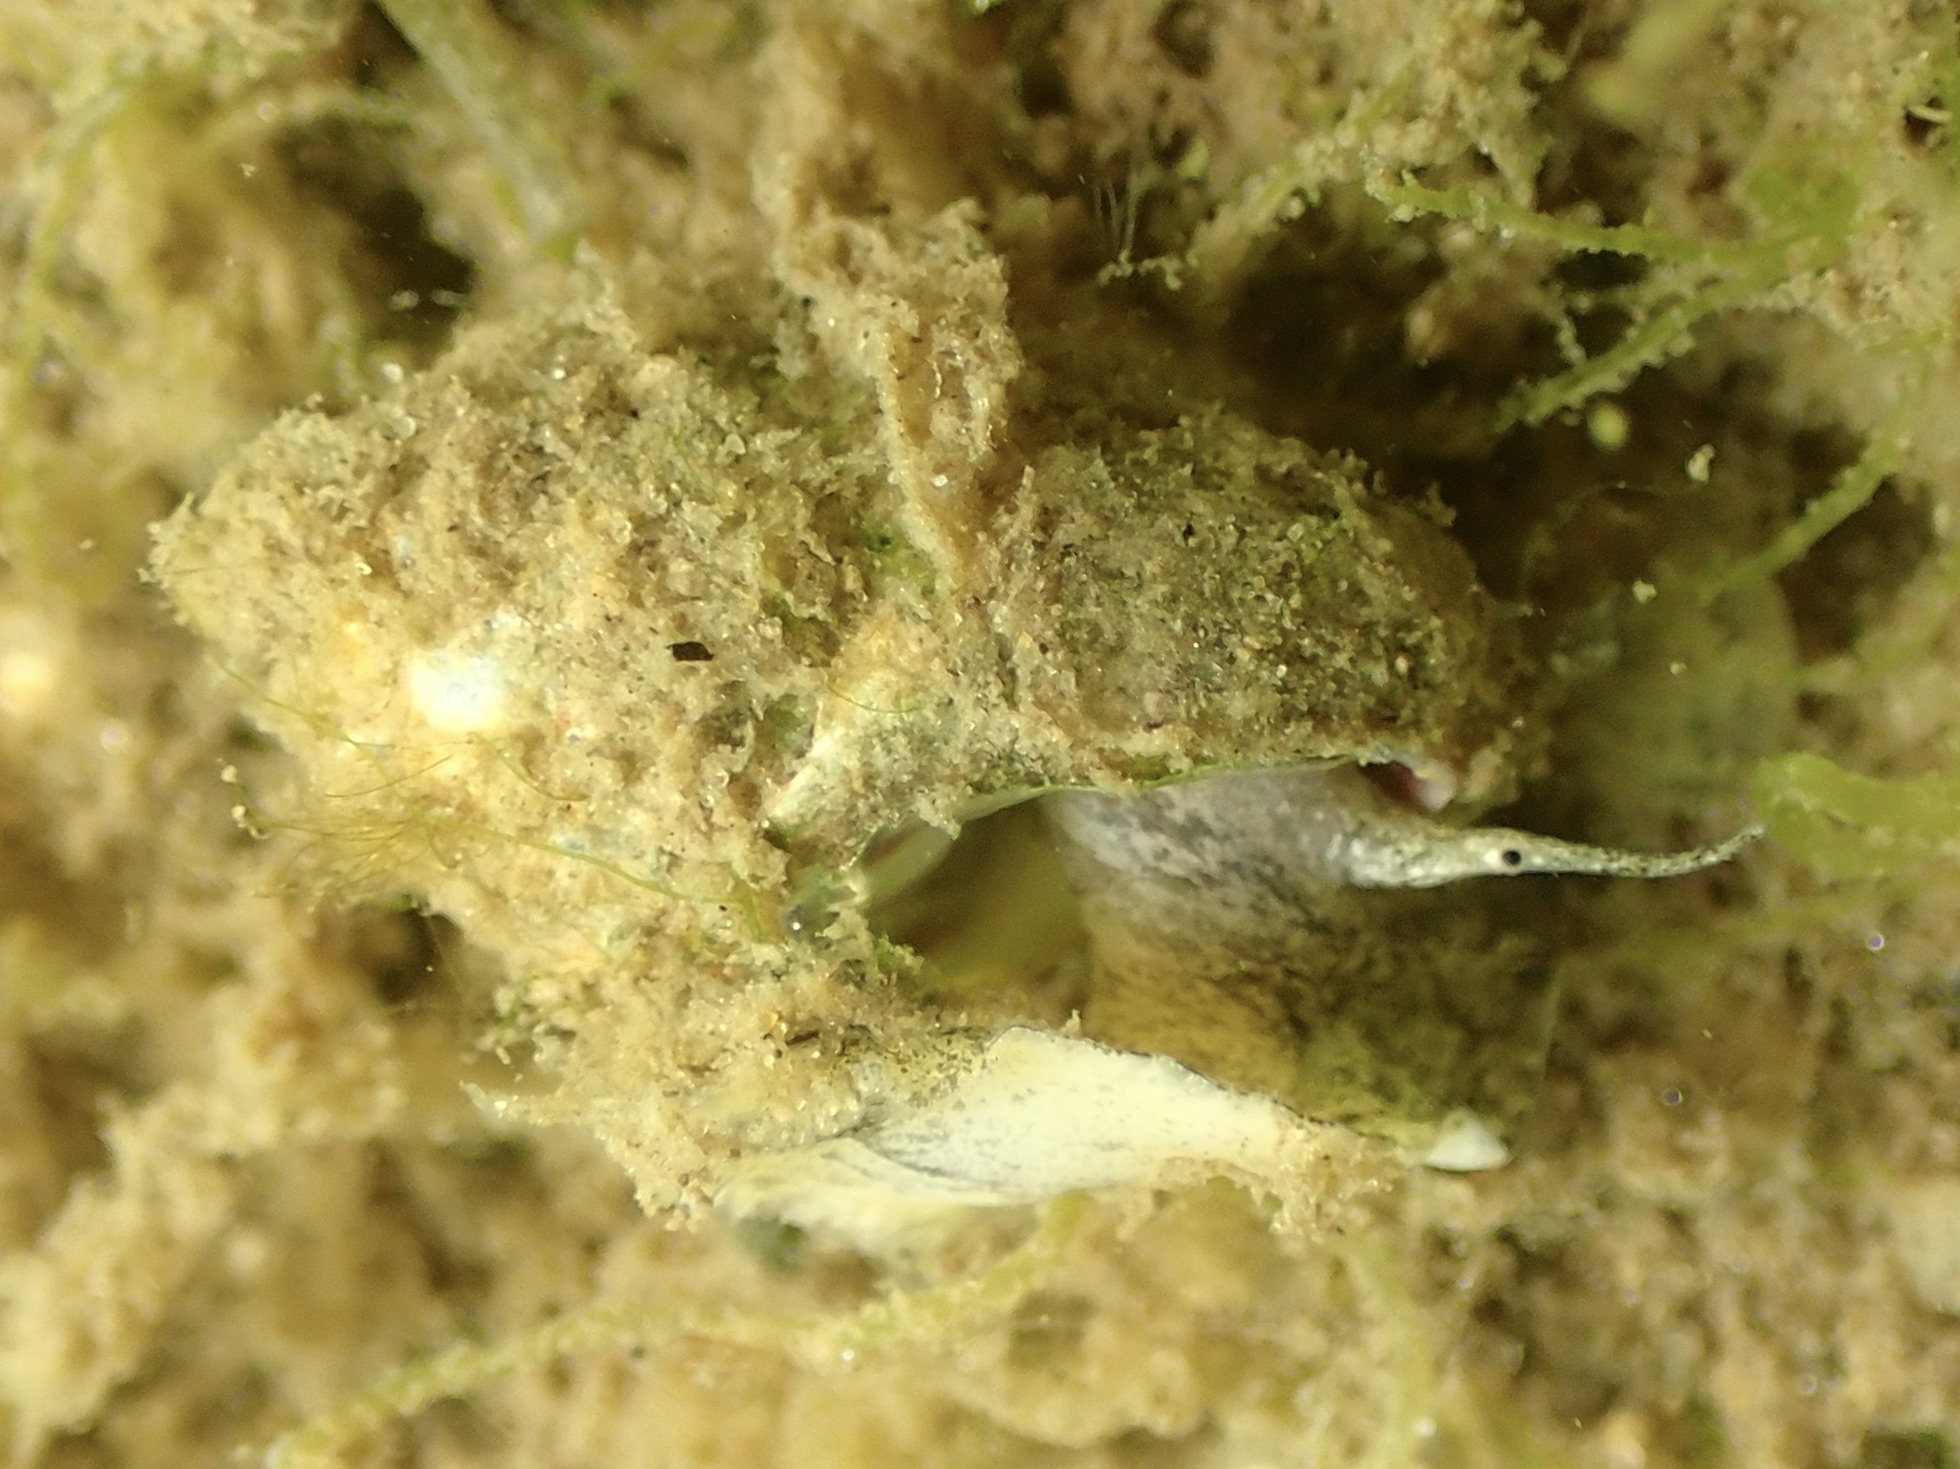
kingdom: Animalia
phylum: Mollusca
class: Gastropoda
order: Neogastropoda
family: Nassariidae
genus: Ilyanassa
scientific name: Ilyanassa obsoleta
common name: Eastern mudsnail
